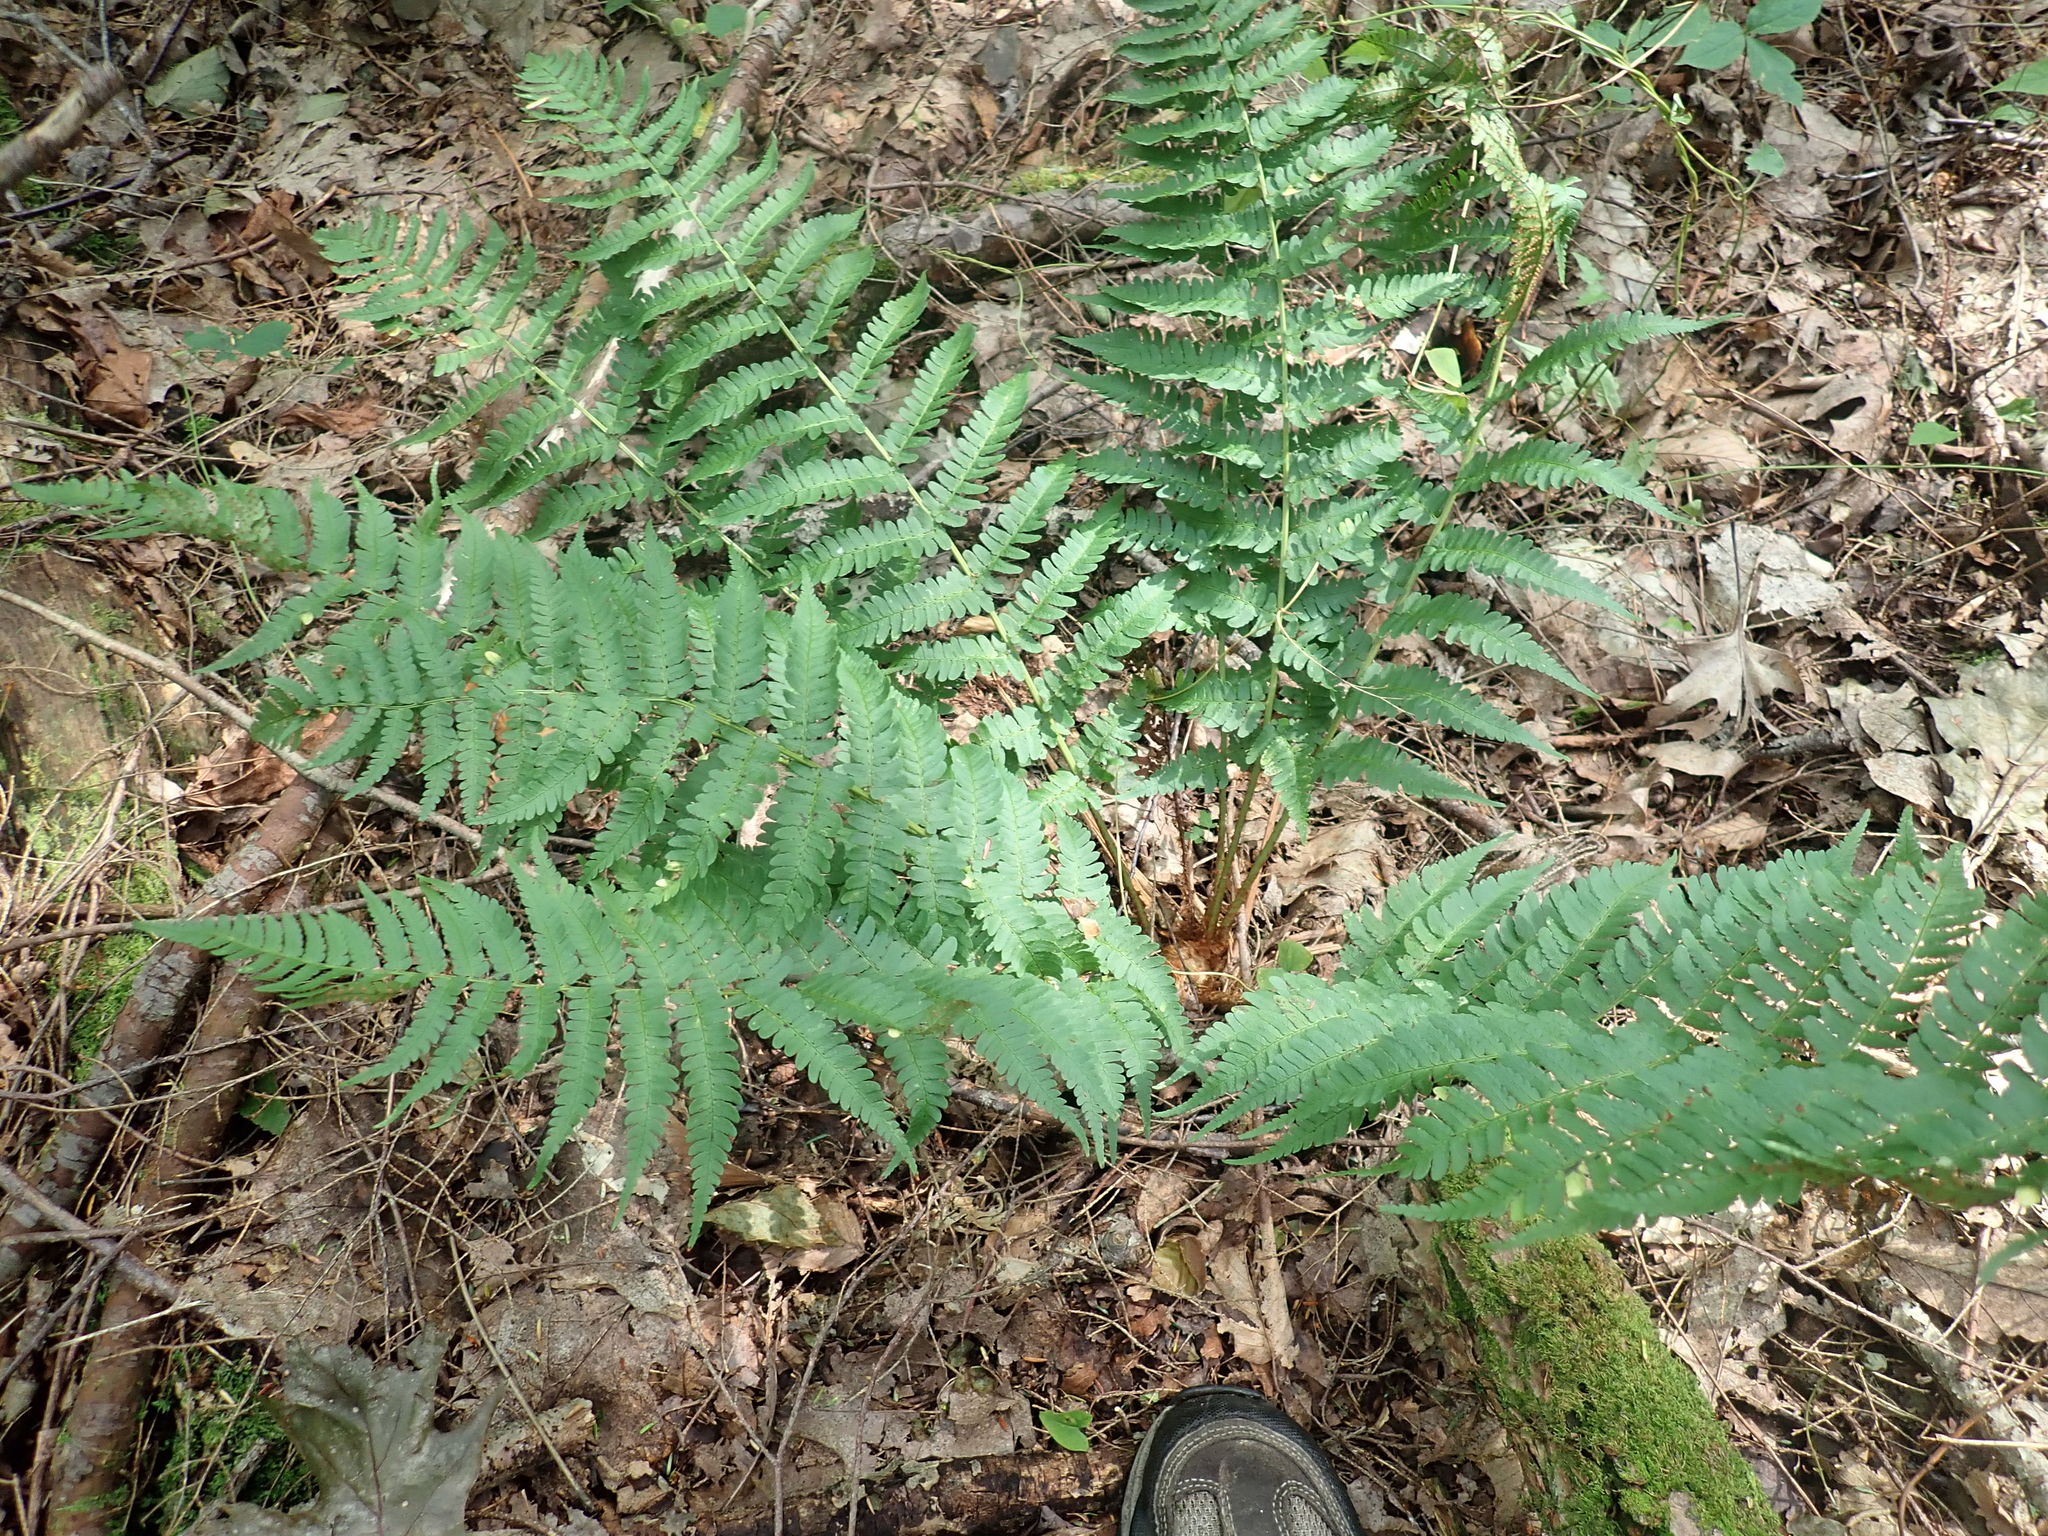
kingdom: Plantae
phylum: Tracheophyta
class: Polypodiopsida
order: Polypodiales
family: Dryopteridaceae
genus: Dryopteris
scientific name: Dryopteris marginalis
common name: Marginal wood fern
